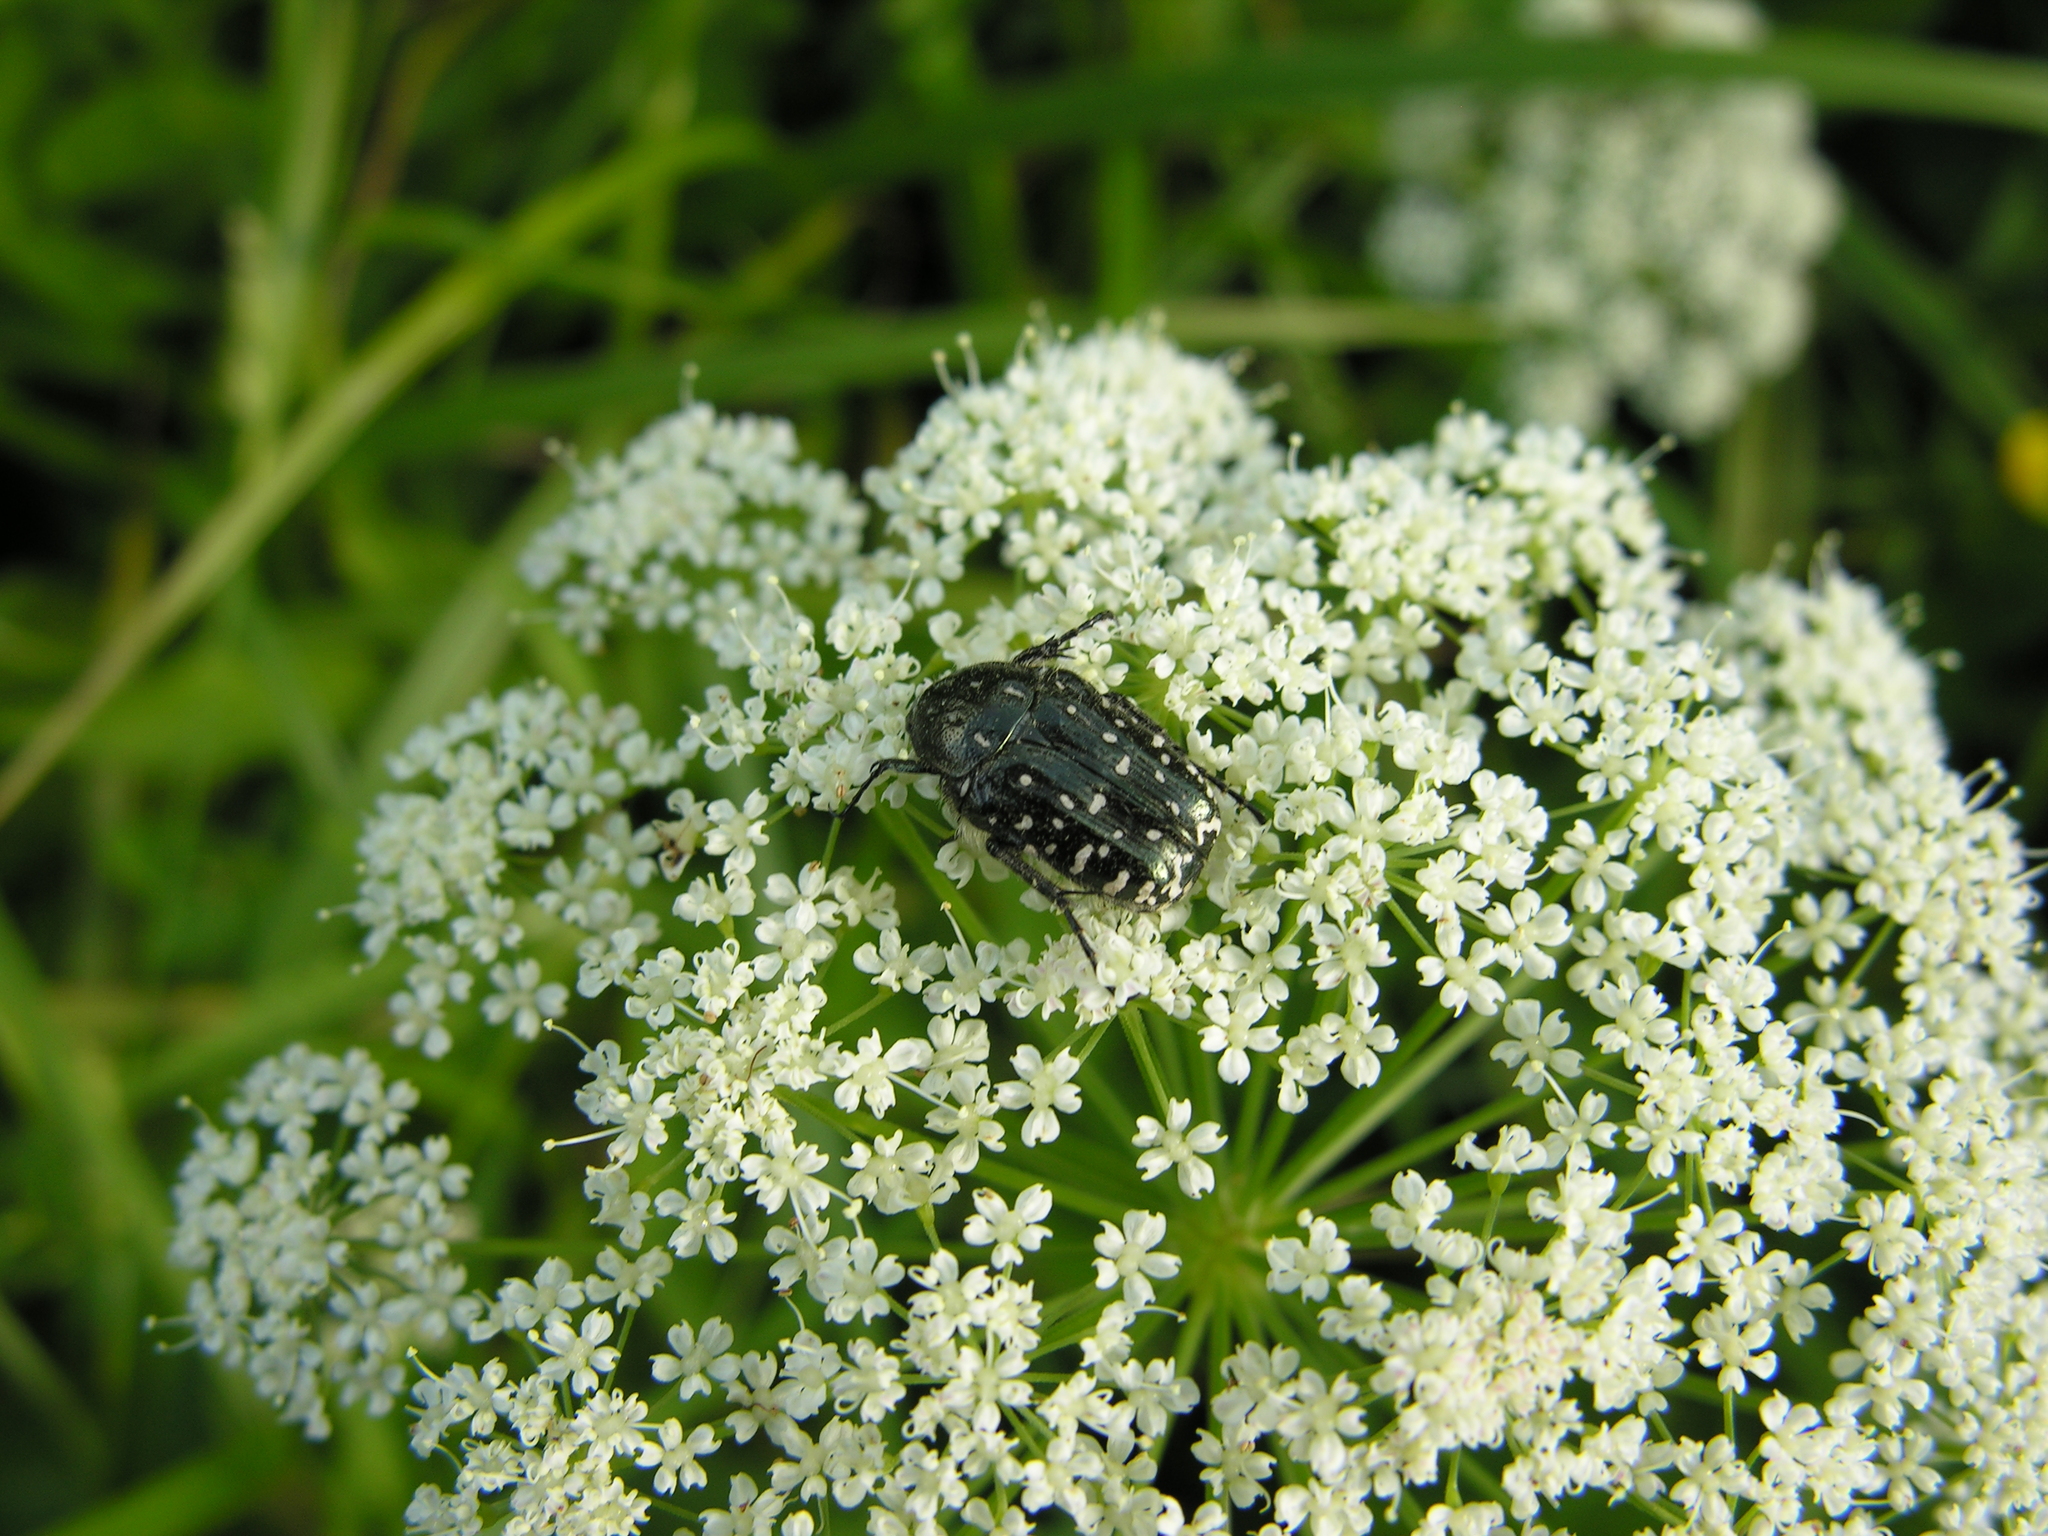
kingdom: Animalia
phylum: Arthropoda
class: Insecta
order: Coleoptera
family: Scarabaeidae
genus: Oxythyrea
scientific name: Oxythyrea funesta
